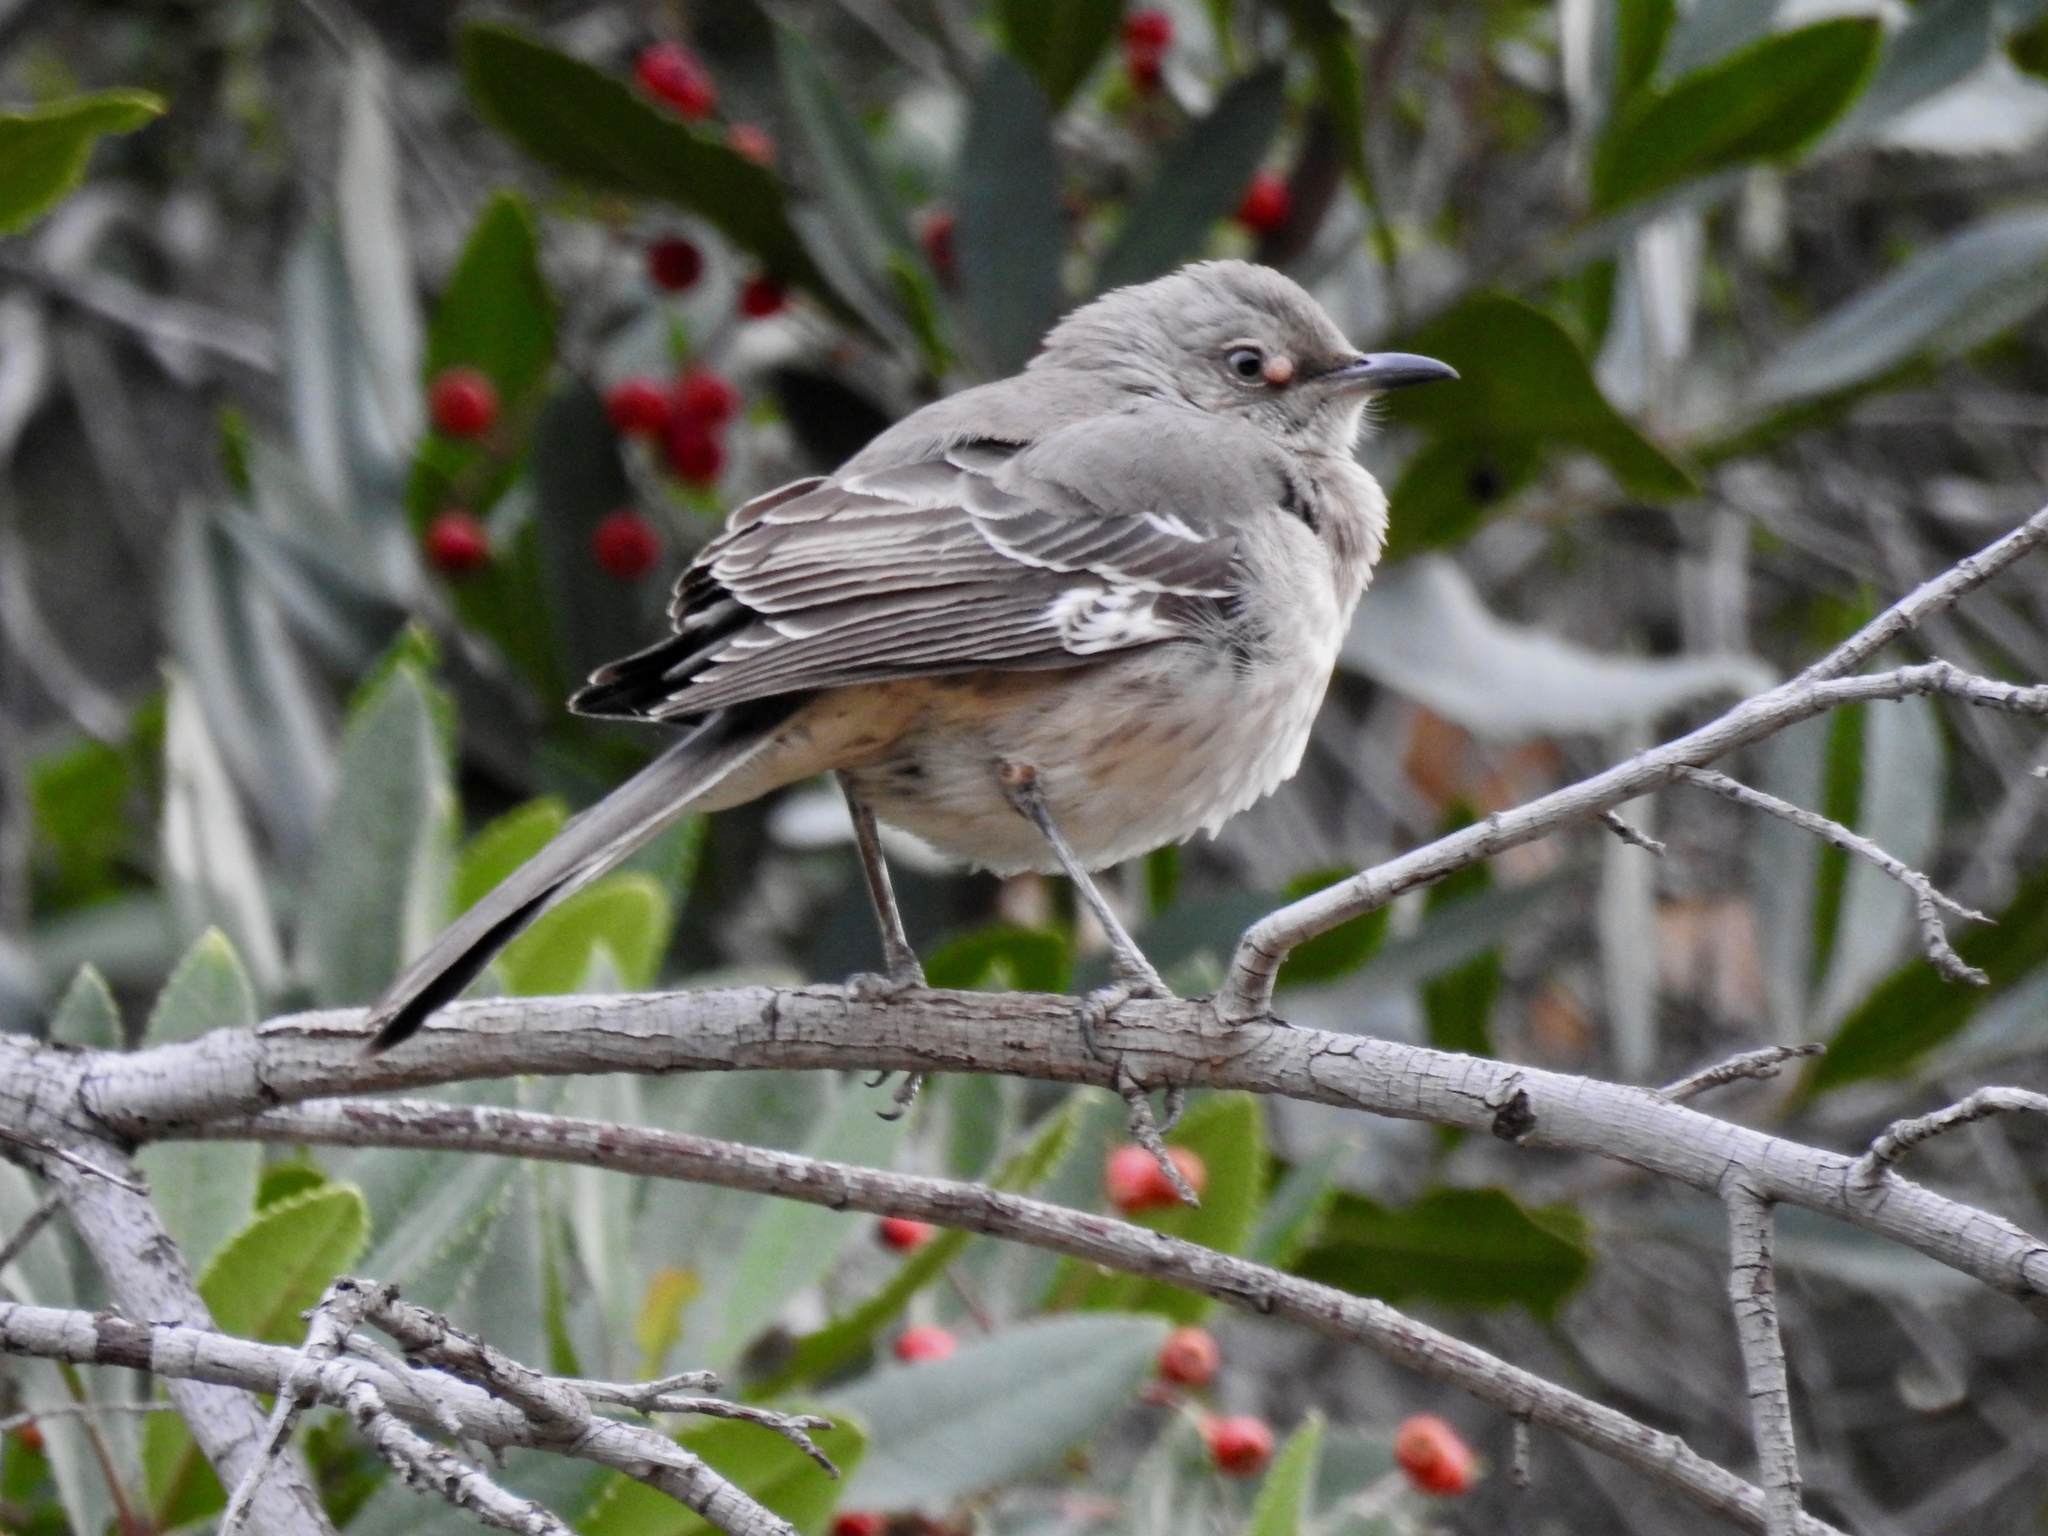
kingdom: Animalia
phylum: Chordata
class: Aves
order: Passeriformes
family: Mimidae
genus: Mimus
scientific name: Mimus polyglottos
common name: Northern mockingbird
